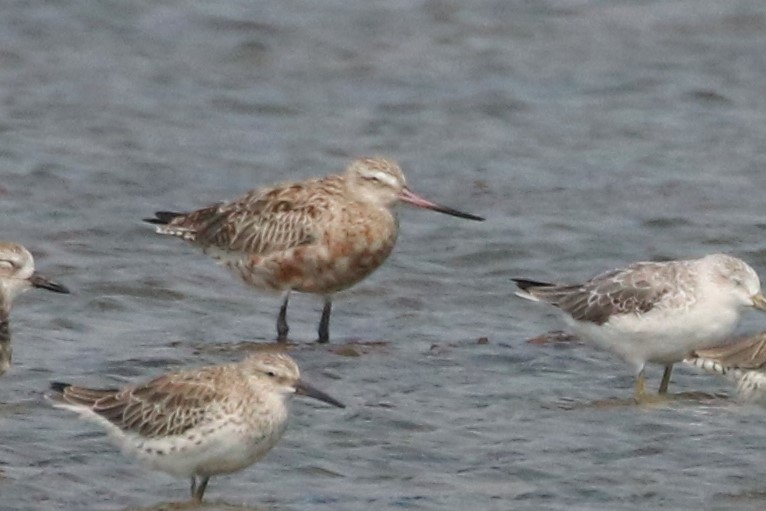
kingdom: Animalia
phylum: Chordata
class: Aves
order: Charadriiformes
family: Scolopacidae
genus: Limosa
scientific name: Limosa lapponica
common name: Bar-tailed godwit
